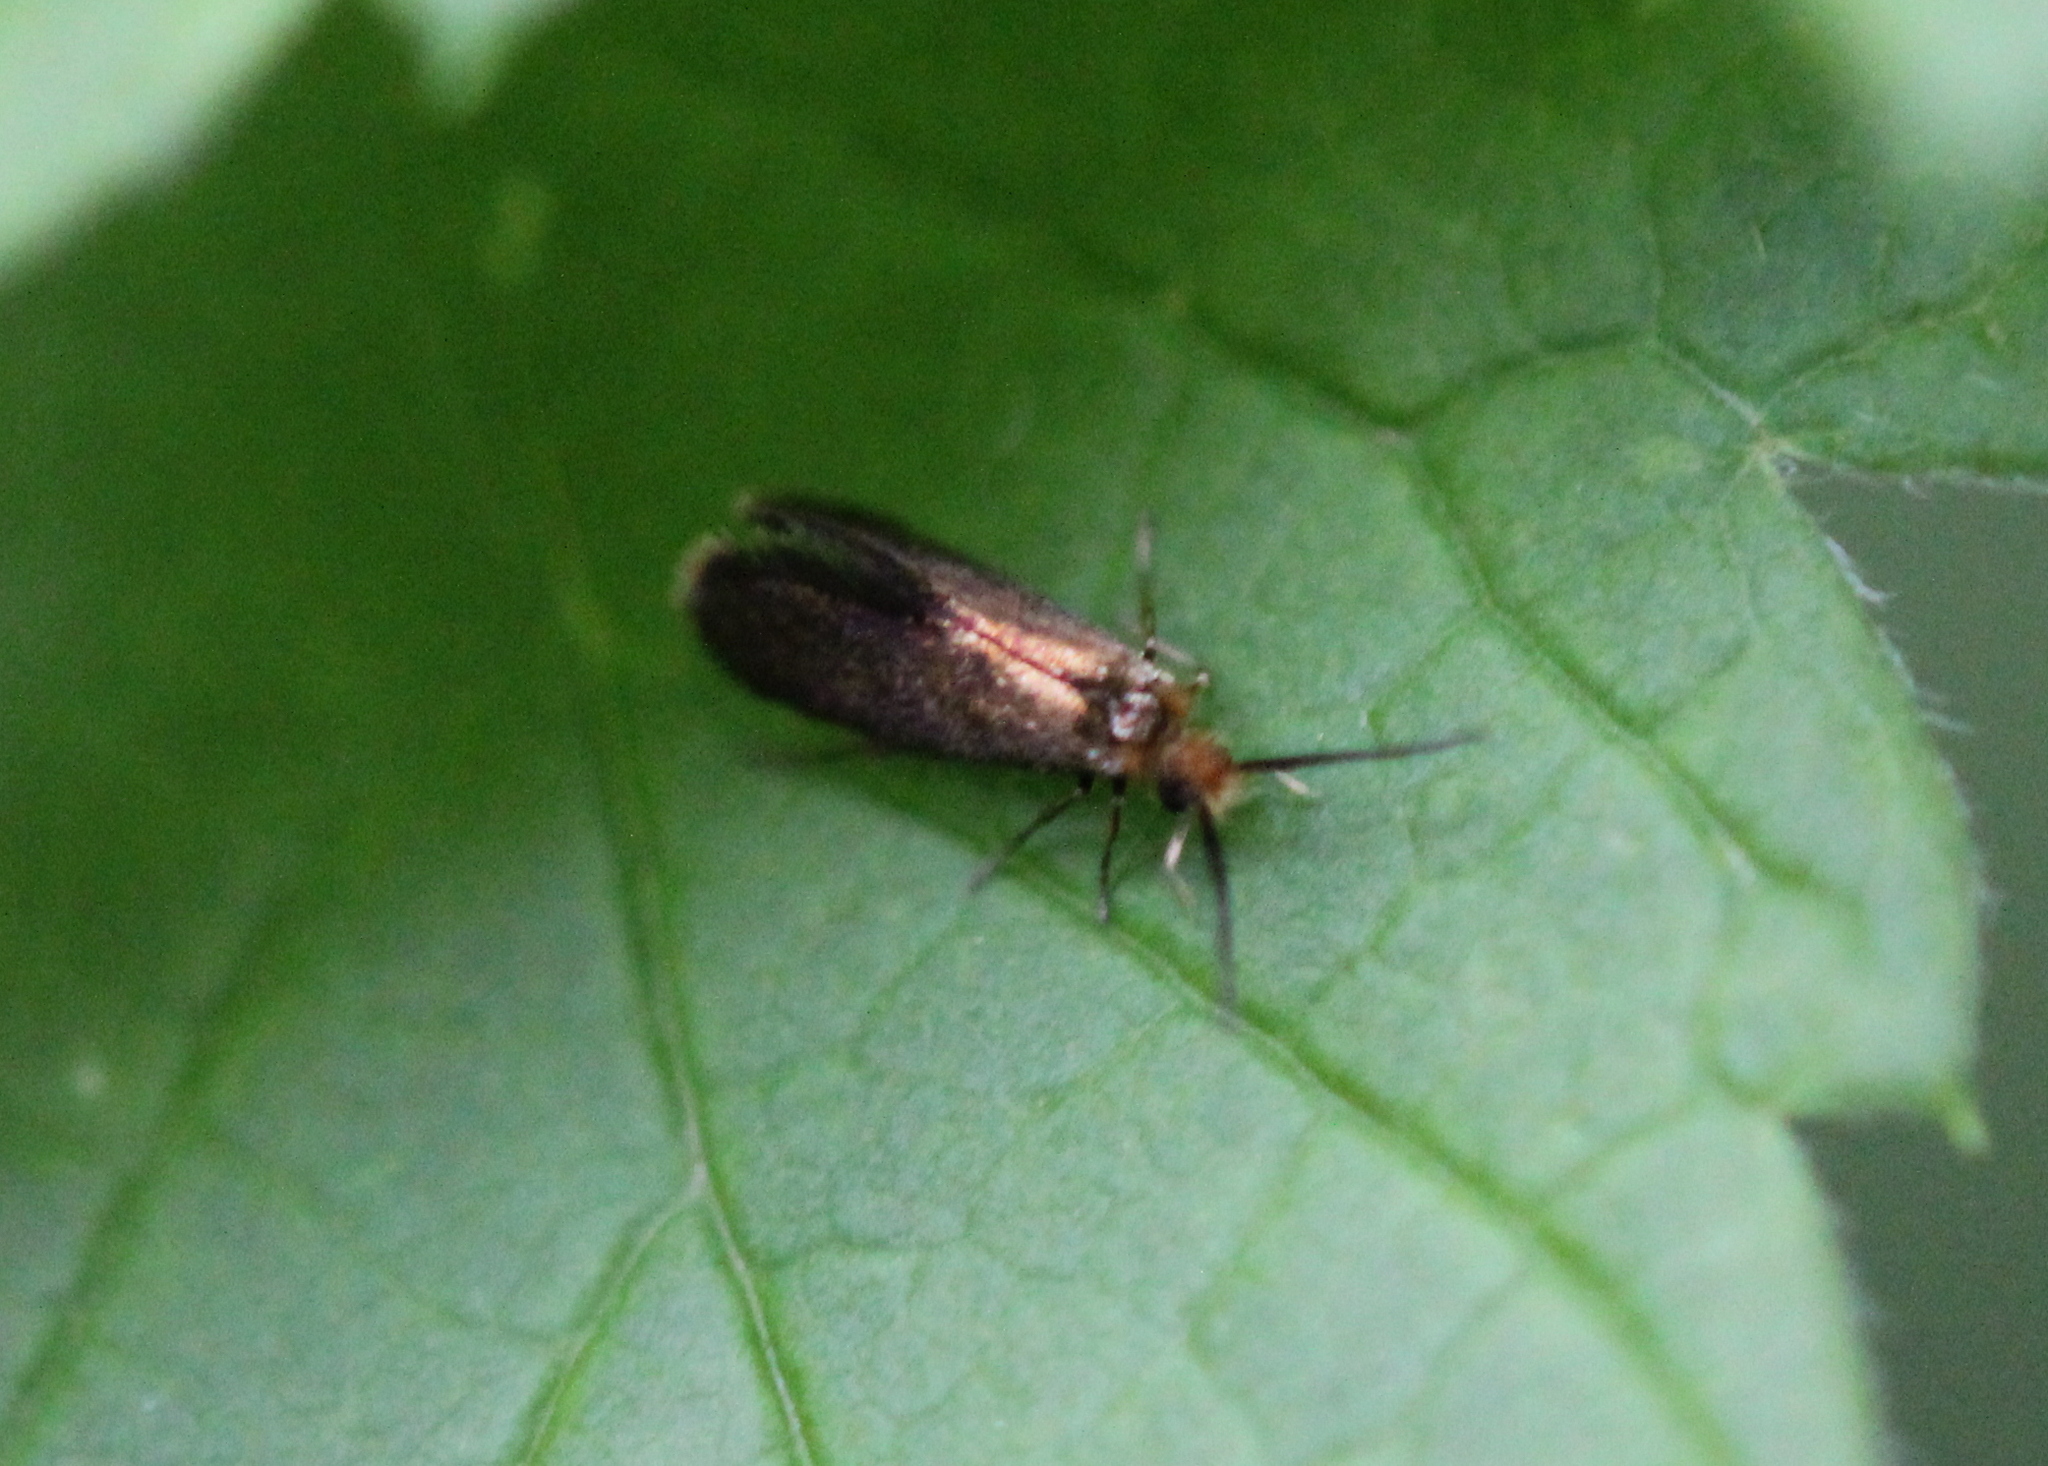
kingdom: Animalia
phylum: Arthropoda
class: Insecta
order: Lepidoptera
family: Micropterigidae
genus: Epimartyria
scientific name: Epimartyria auricrinella
